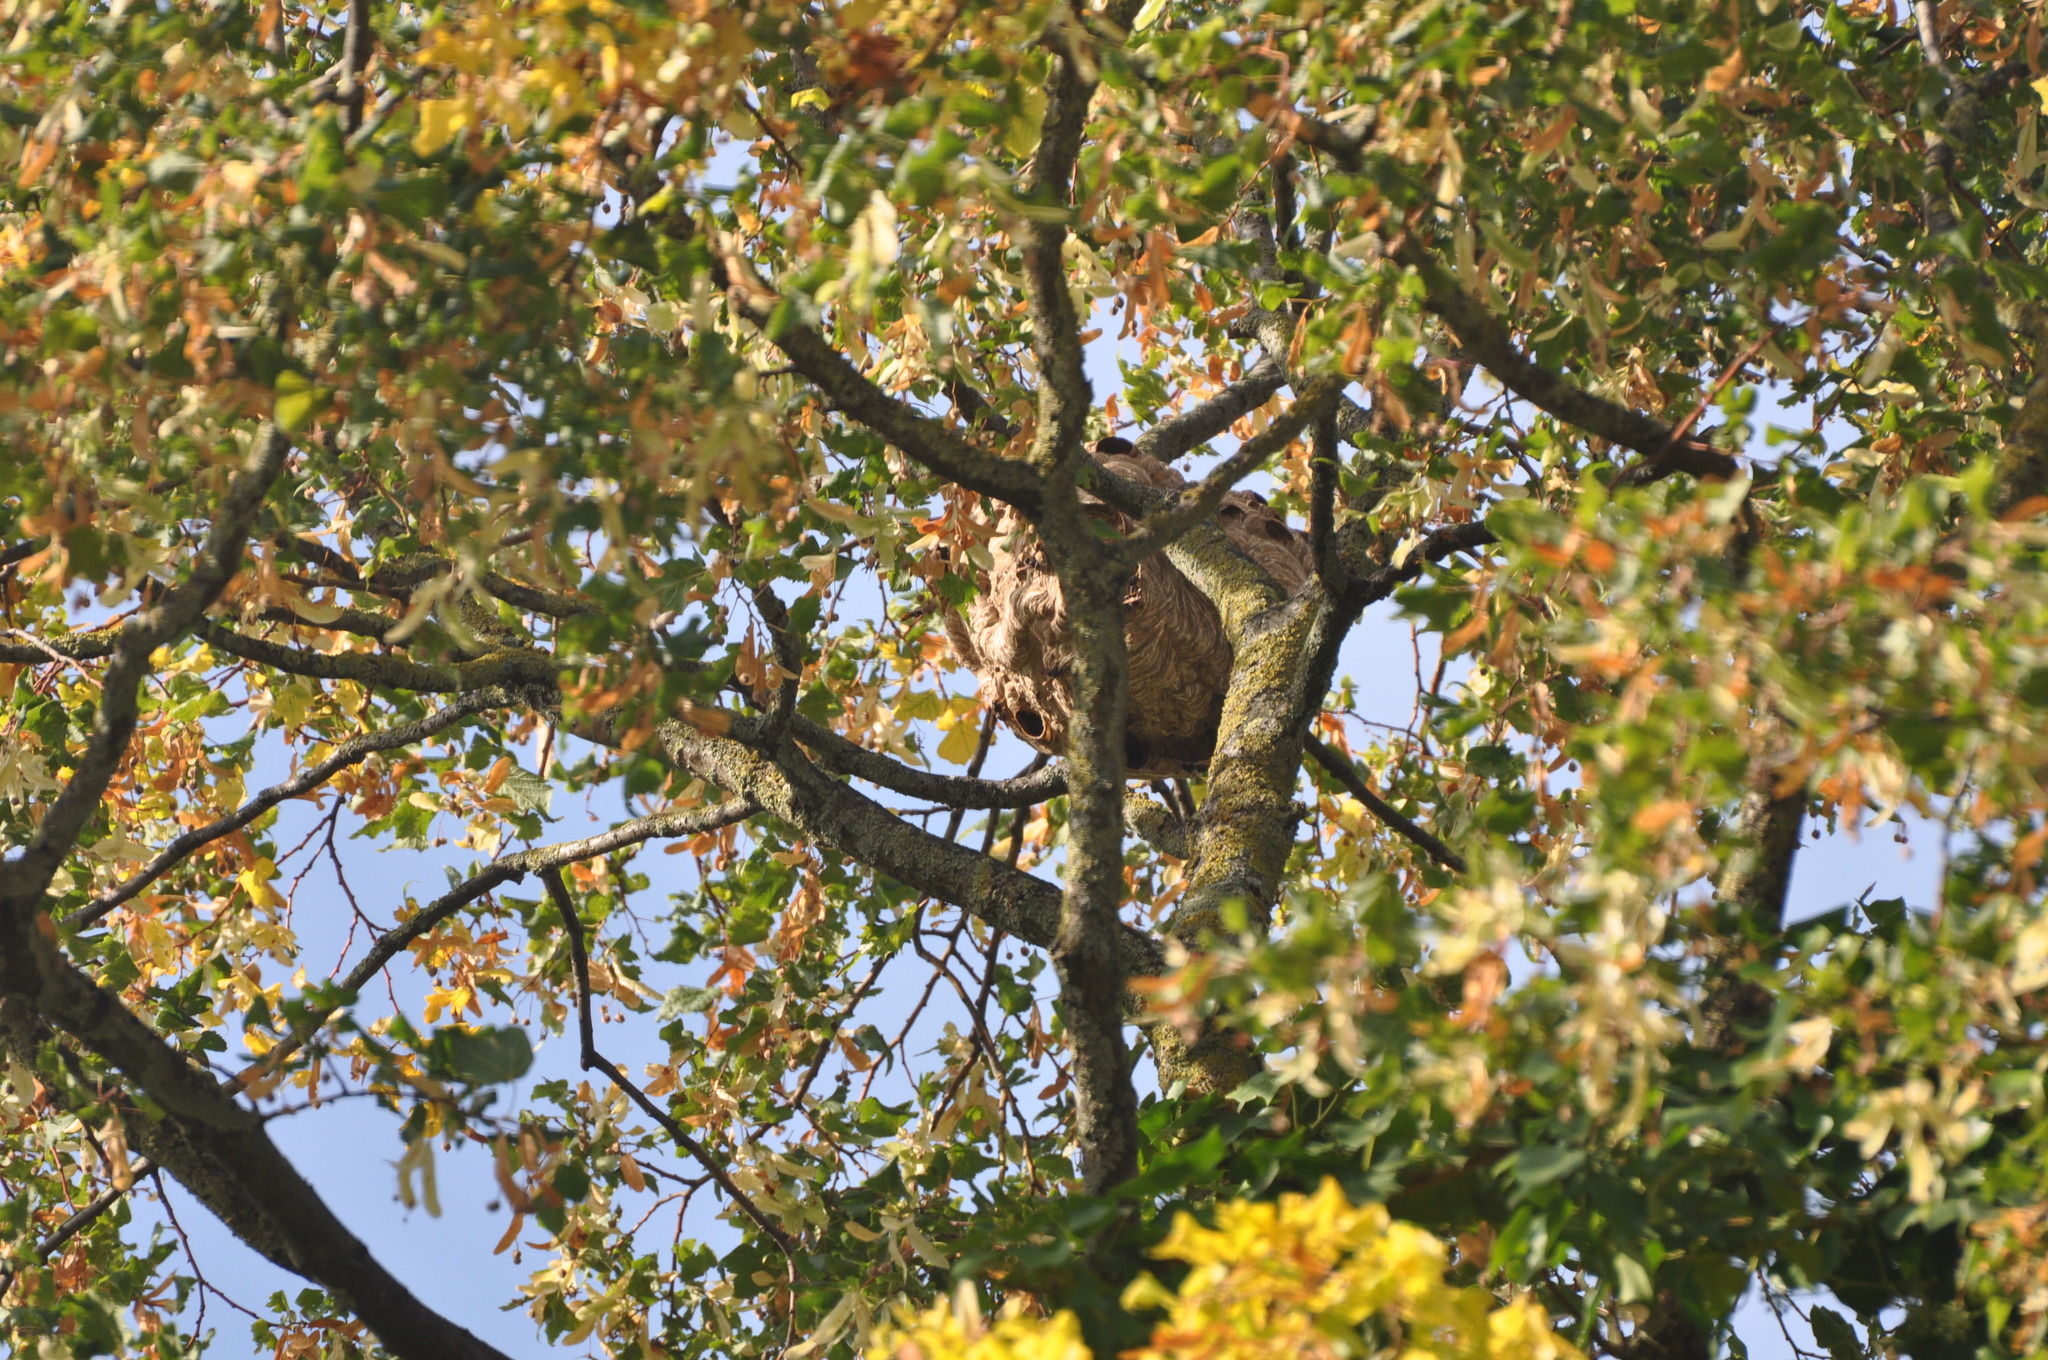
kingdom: Animalia
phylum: Arthropoda
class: Insecta
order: Hymenoptera
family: Vespidae
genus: Vespa
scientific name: Vespa velutina
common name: Asian hornet
